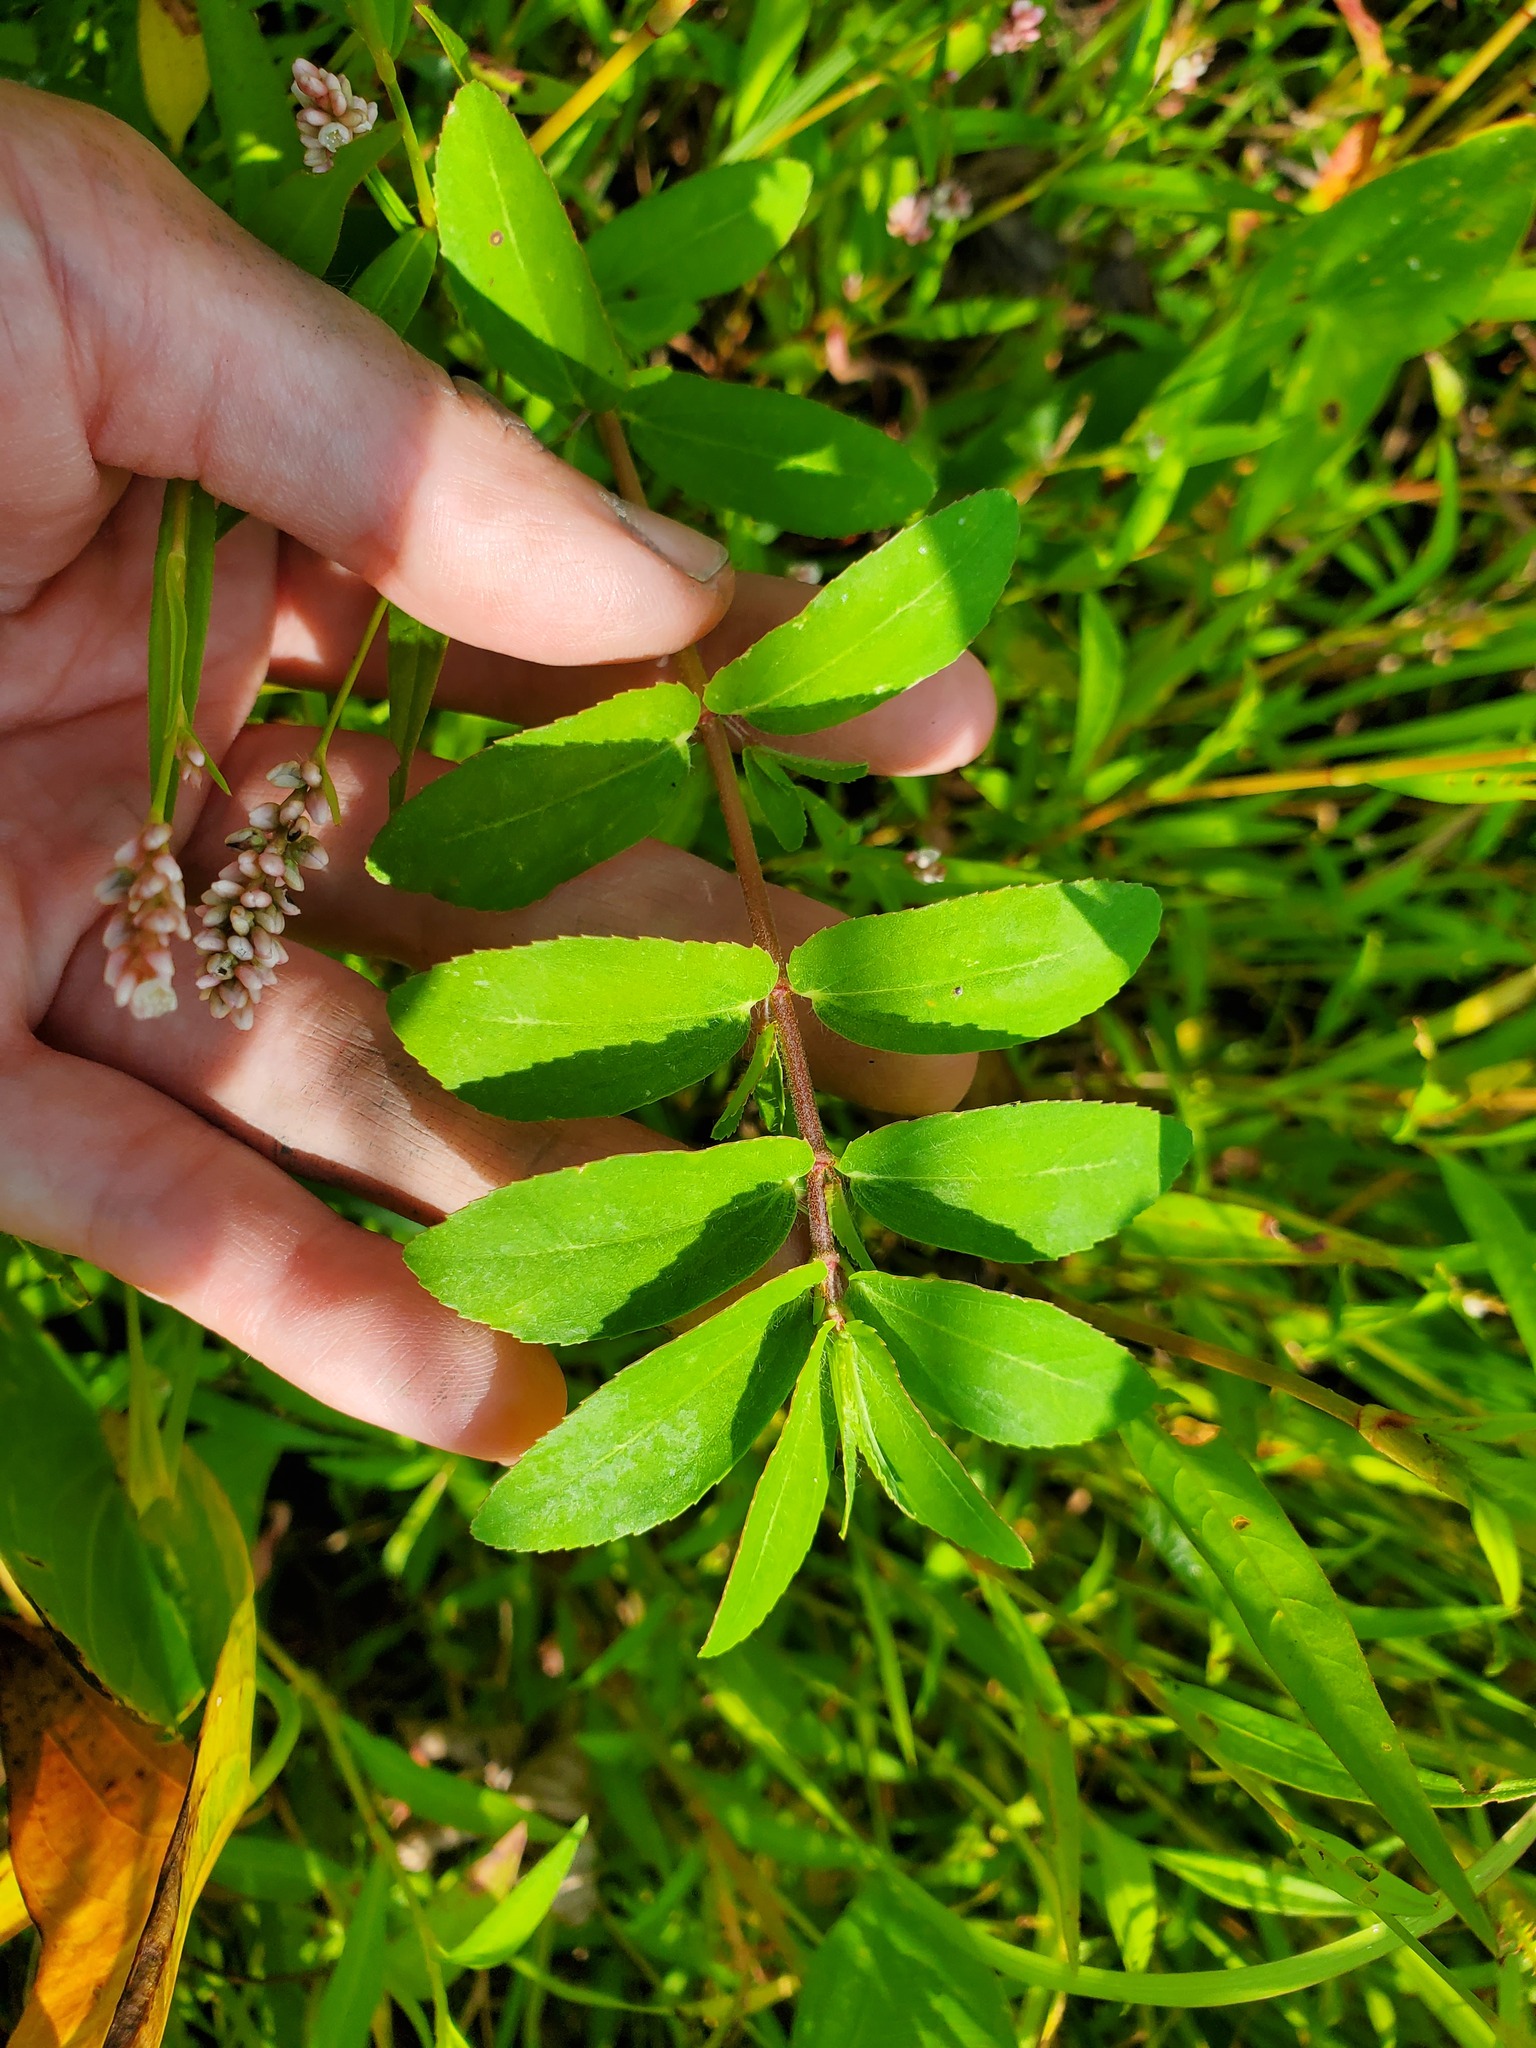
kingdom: Plantae
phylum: Tracheophyta
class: Magnoliopsida
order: Malpighiales
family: Euphorbiaceae
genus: Euphorbia
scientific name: Euphorbia nutans
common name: Eyebane
